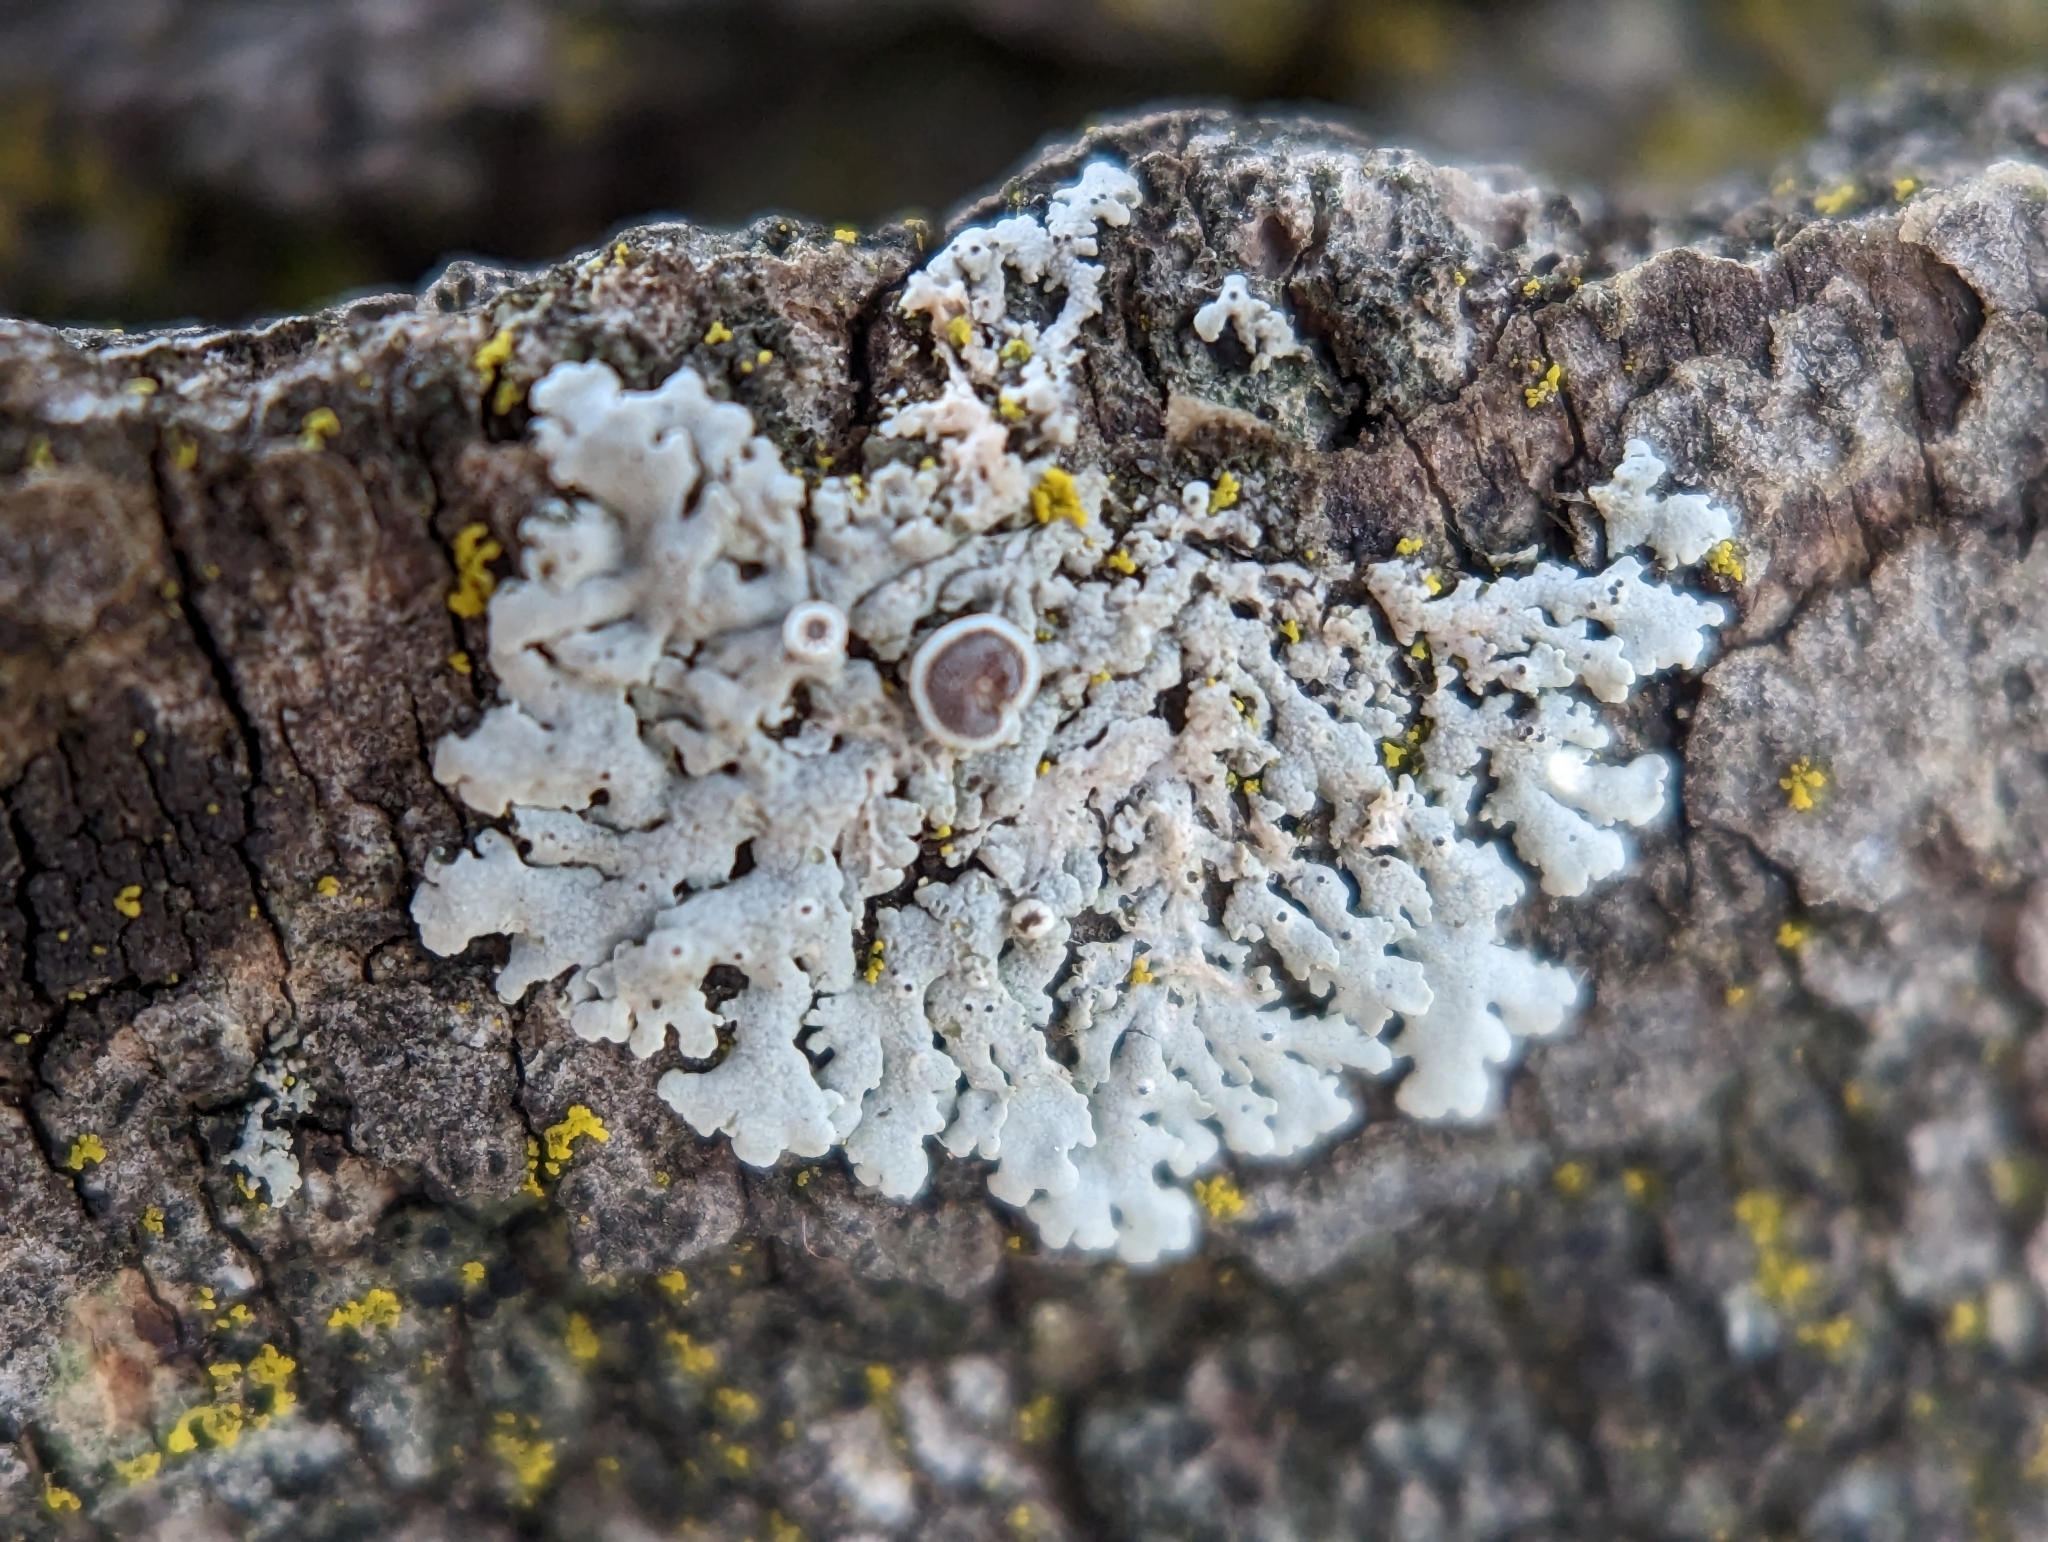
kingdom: Fungi
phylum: Ascomycota
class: Lecanoromycetes
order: Caliciales
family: Physciaceae
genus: Physcia
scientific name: Physcia stellaris
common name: Star rosette lichen
